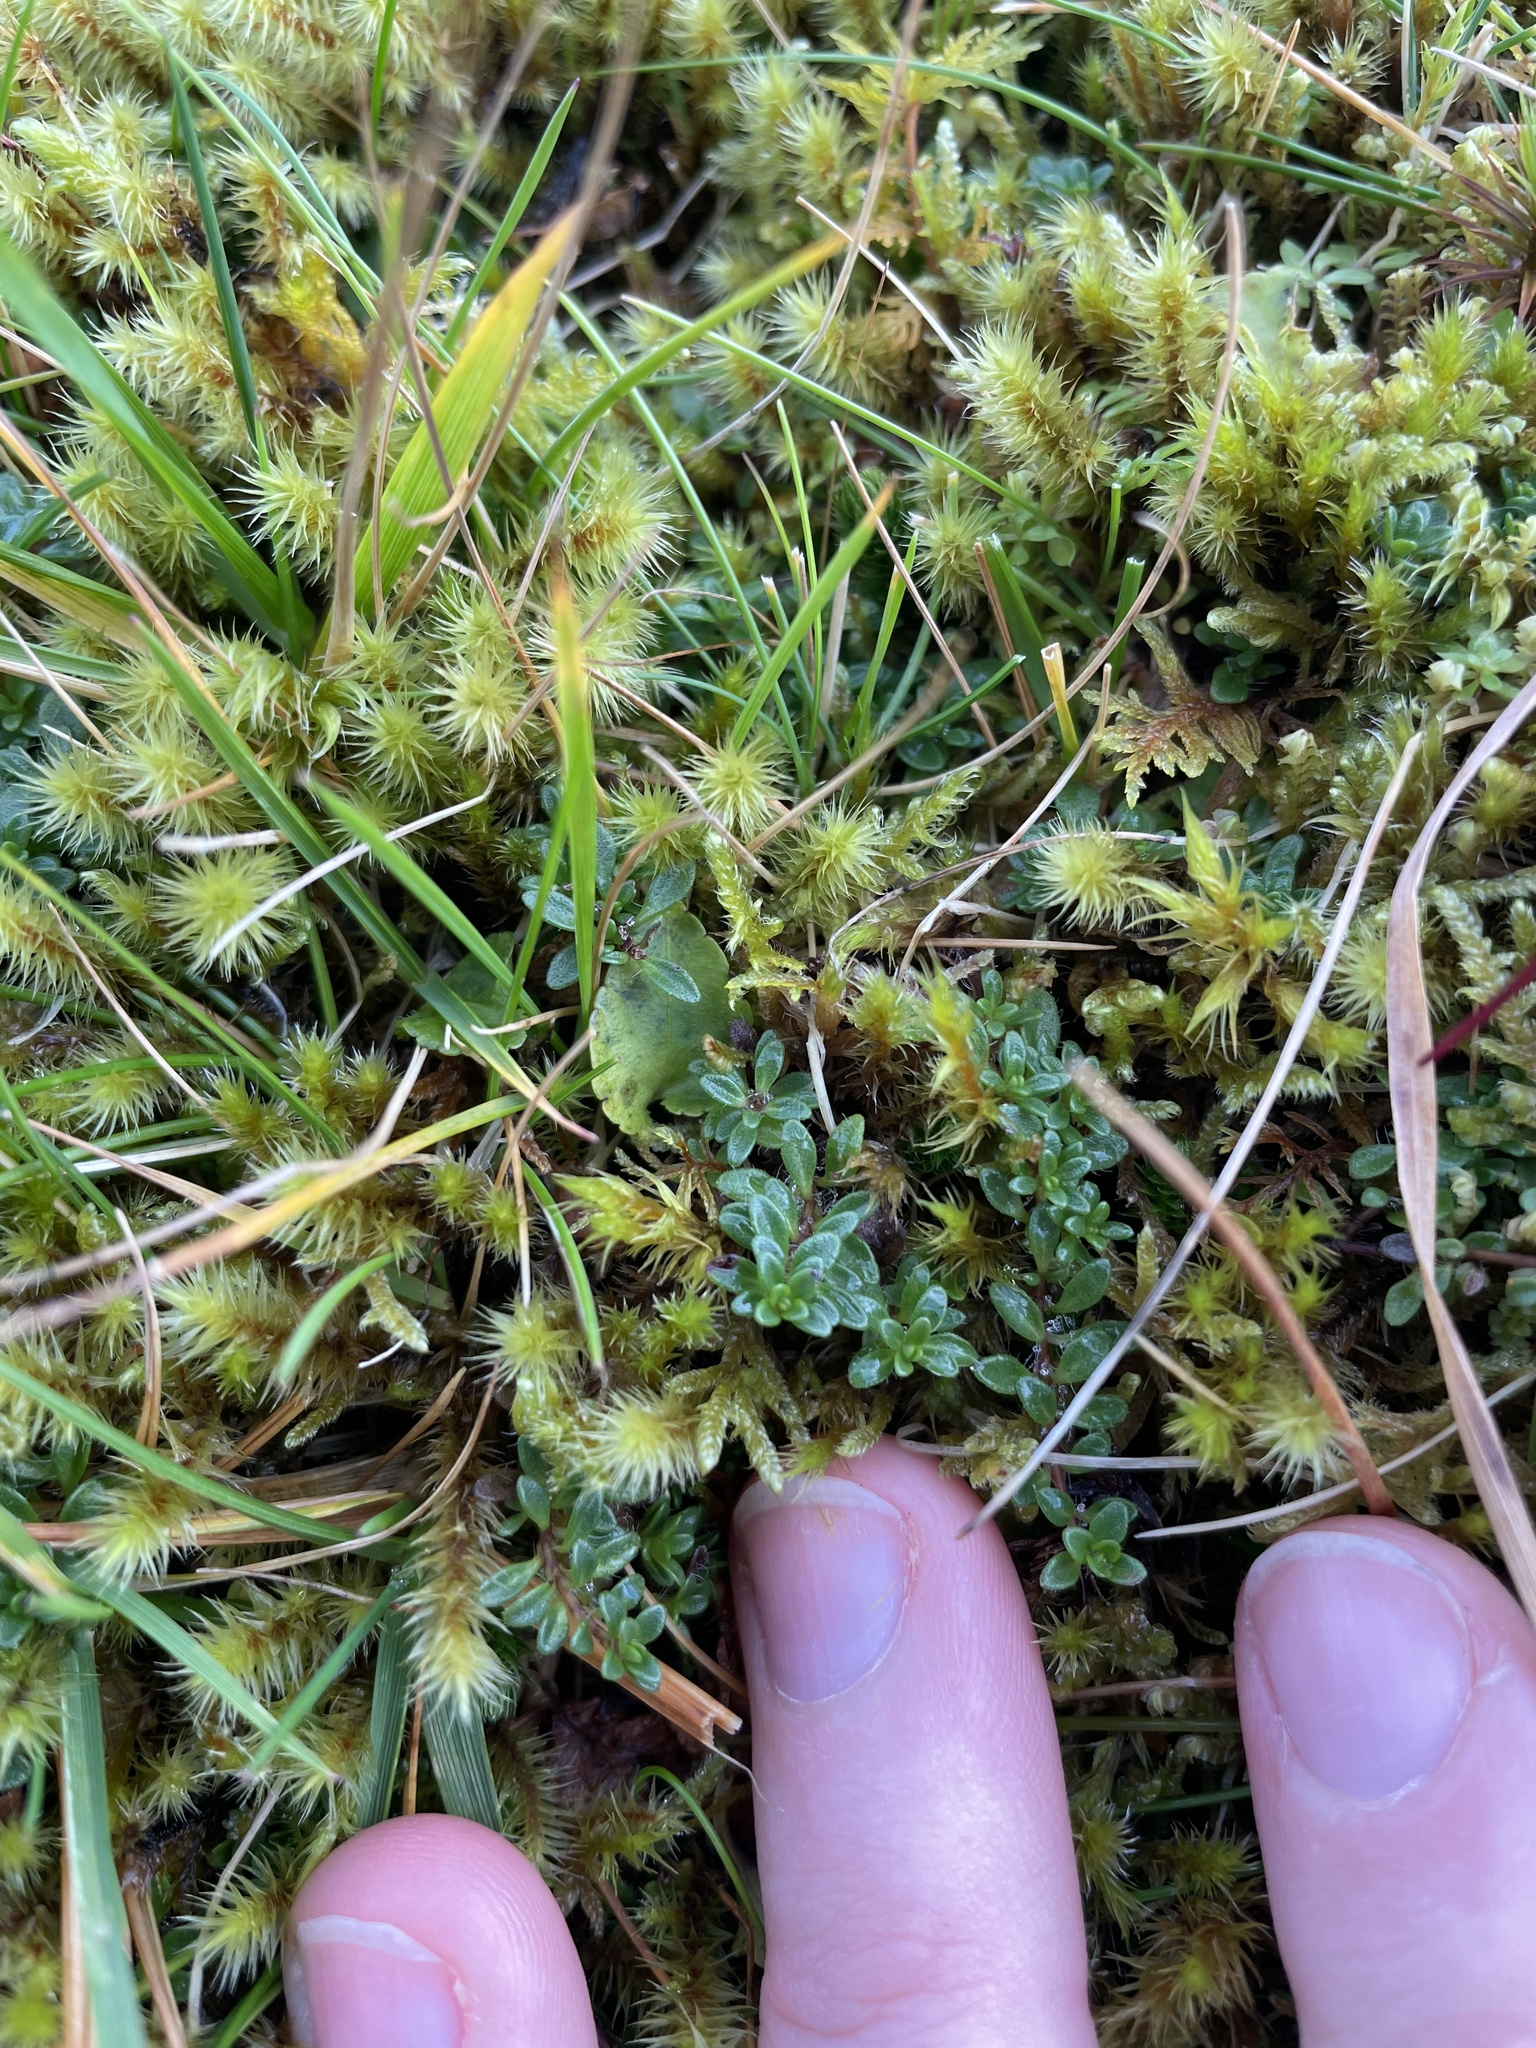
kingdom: Plantae
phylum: Tracheophyta
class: Magnoliopsida
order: Lamiales
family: Lamiaceae
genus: Thymus
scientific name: Thymus praecox
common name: Wild thyme
